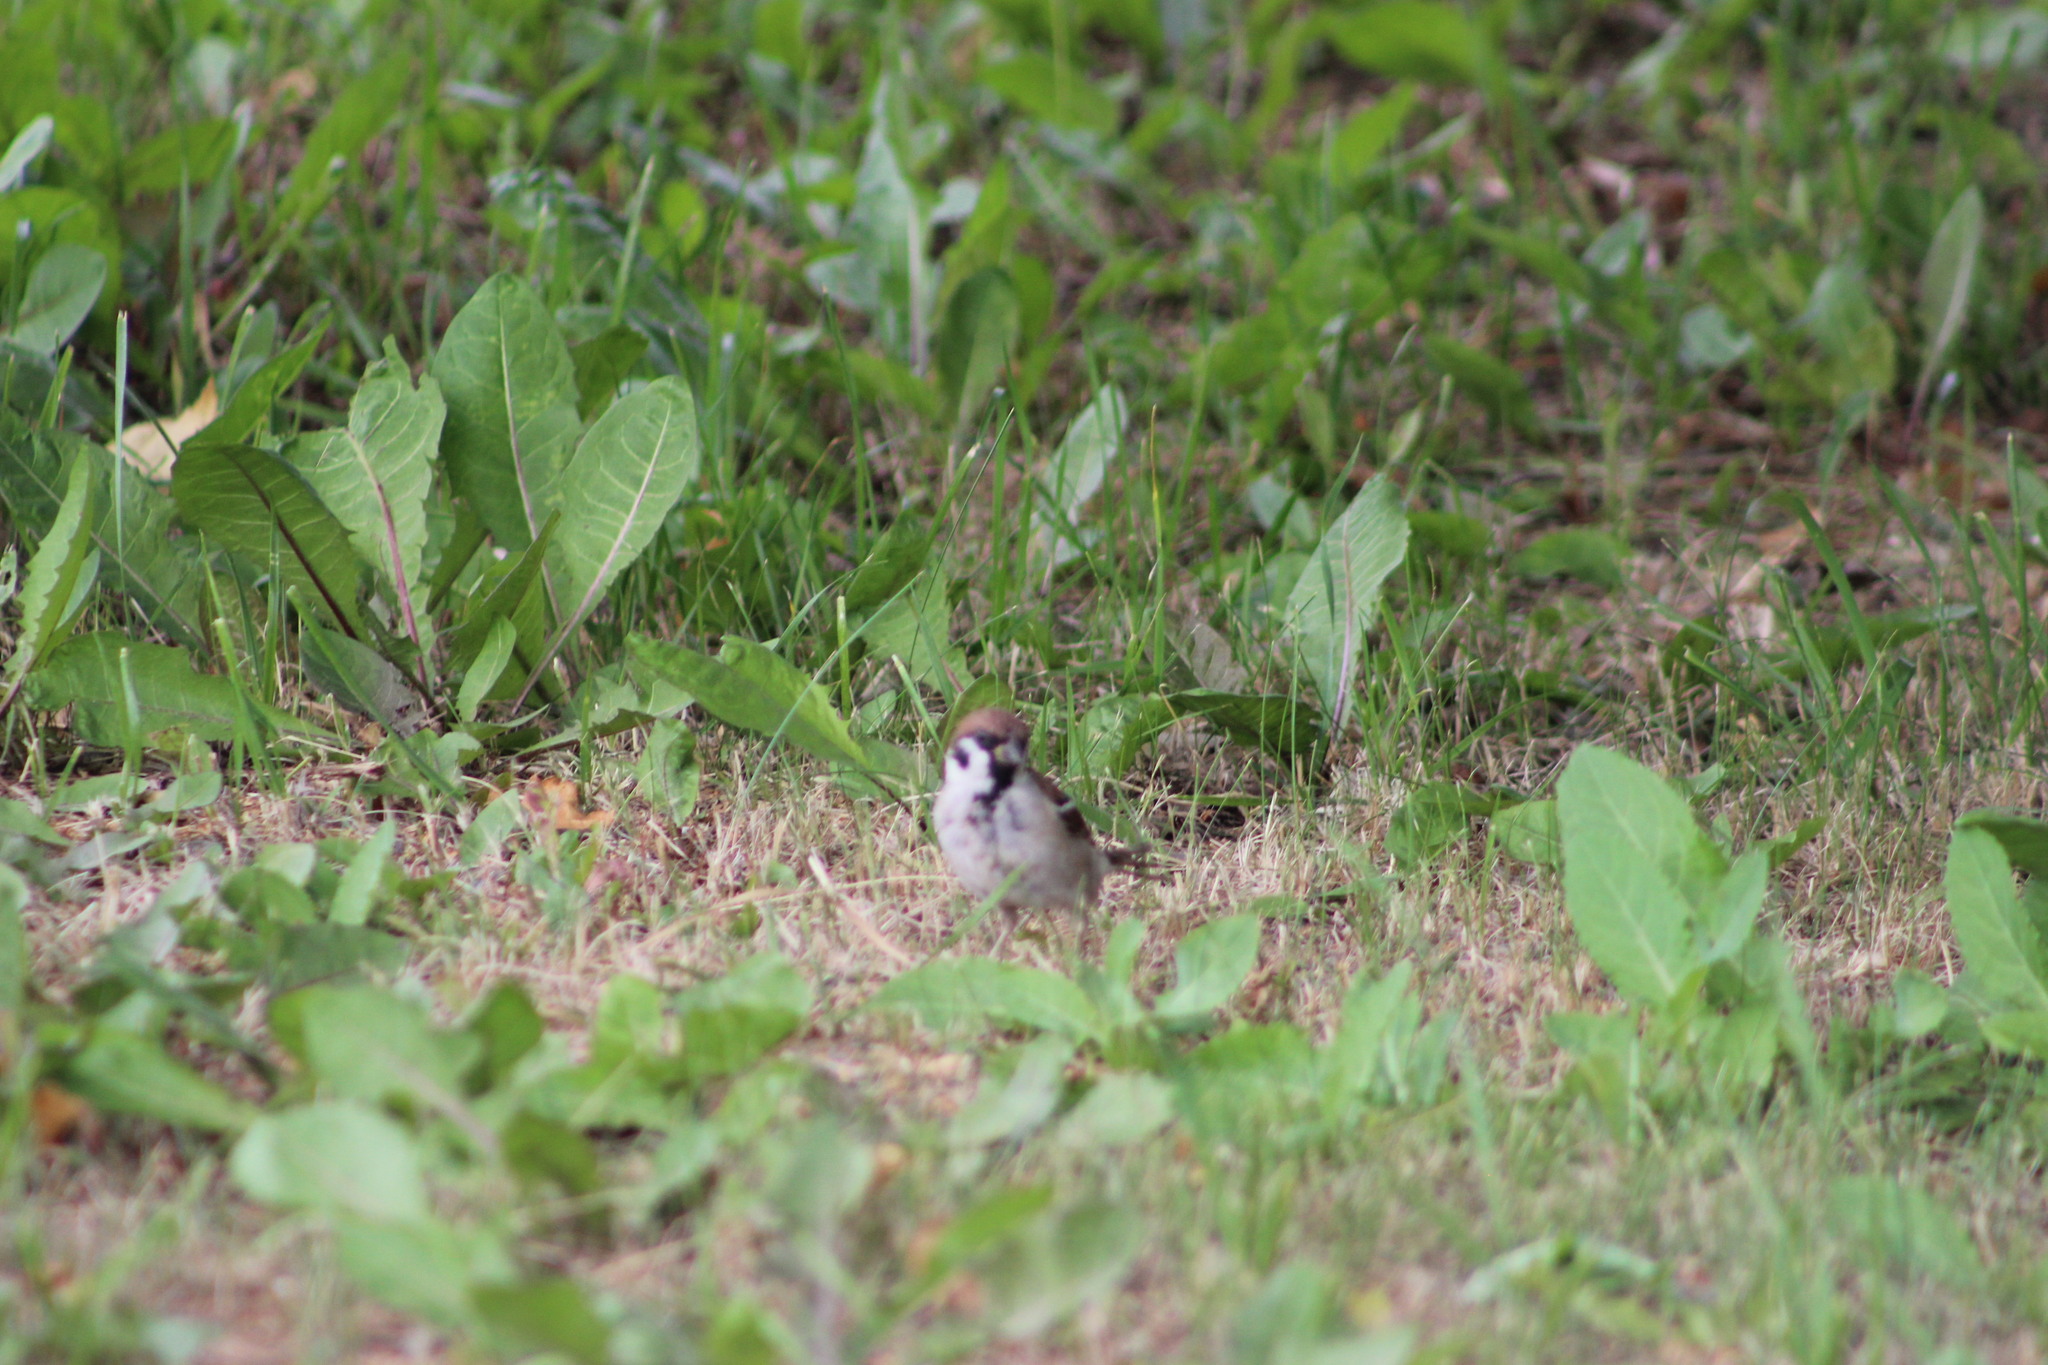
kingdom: Animalia
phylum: Chordata
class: Aves
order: Passeriformes
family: Passeridae
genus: Passer
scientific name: Passer montanus
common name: Eurasian tree sparrow
